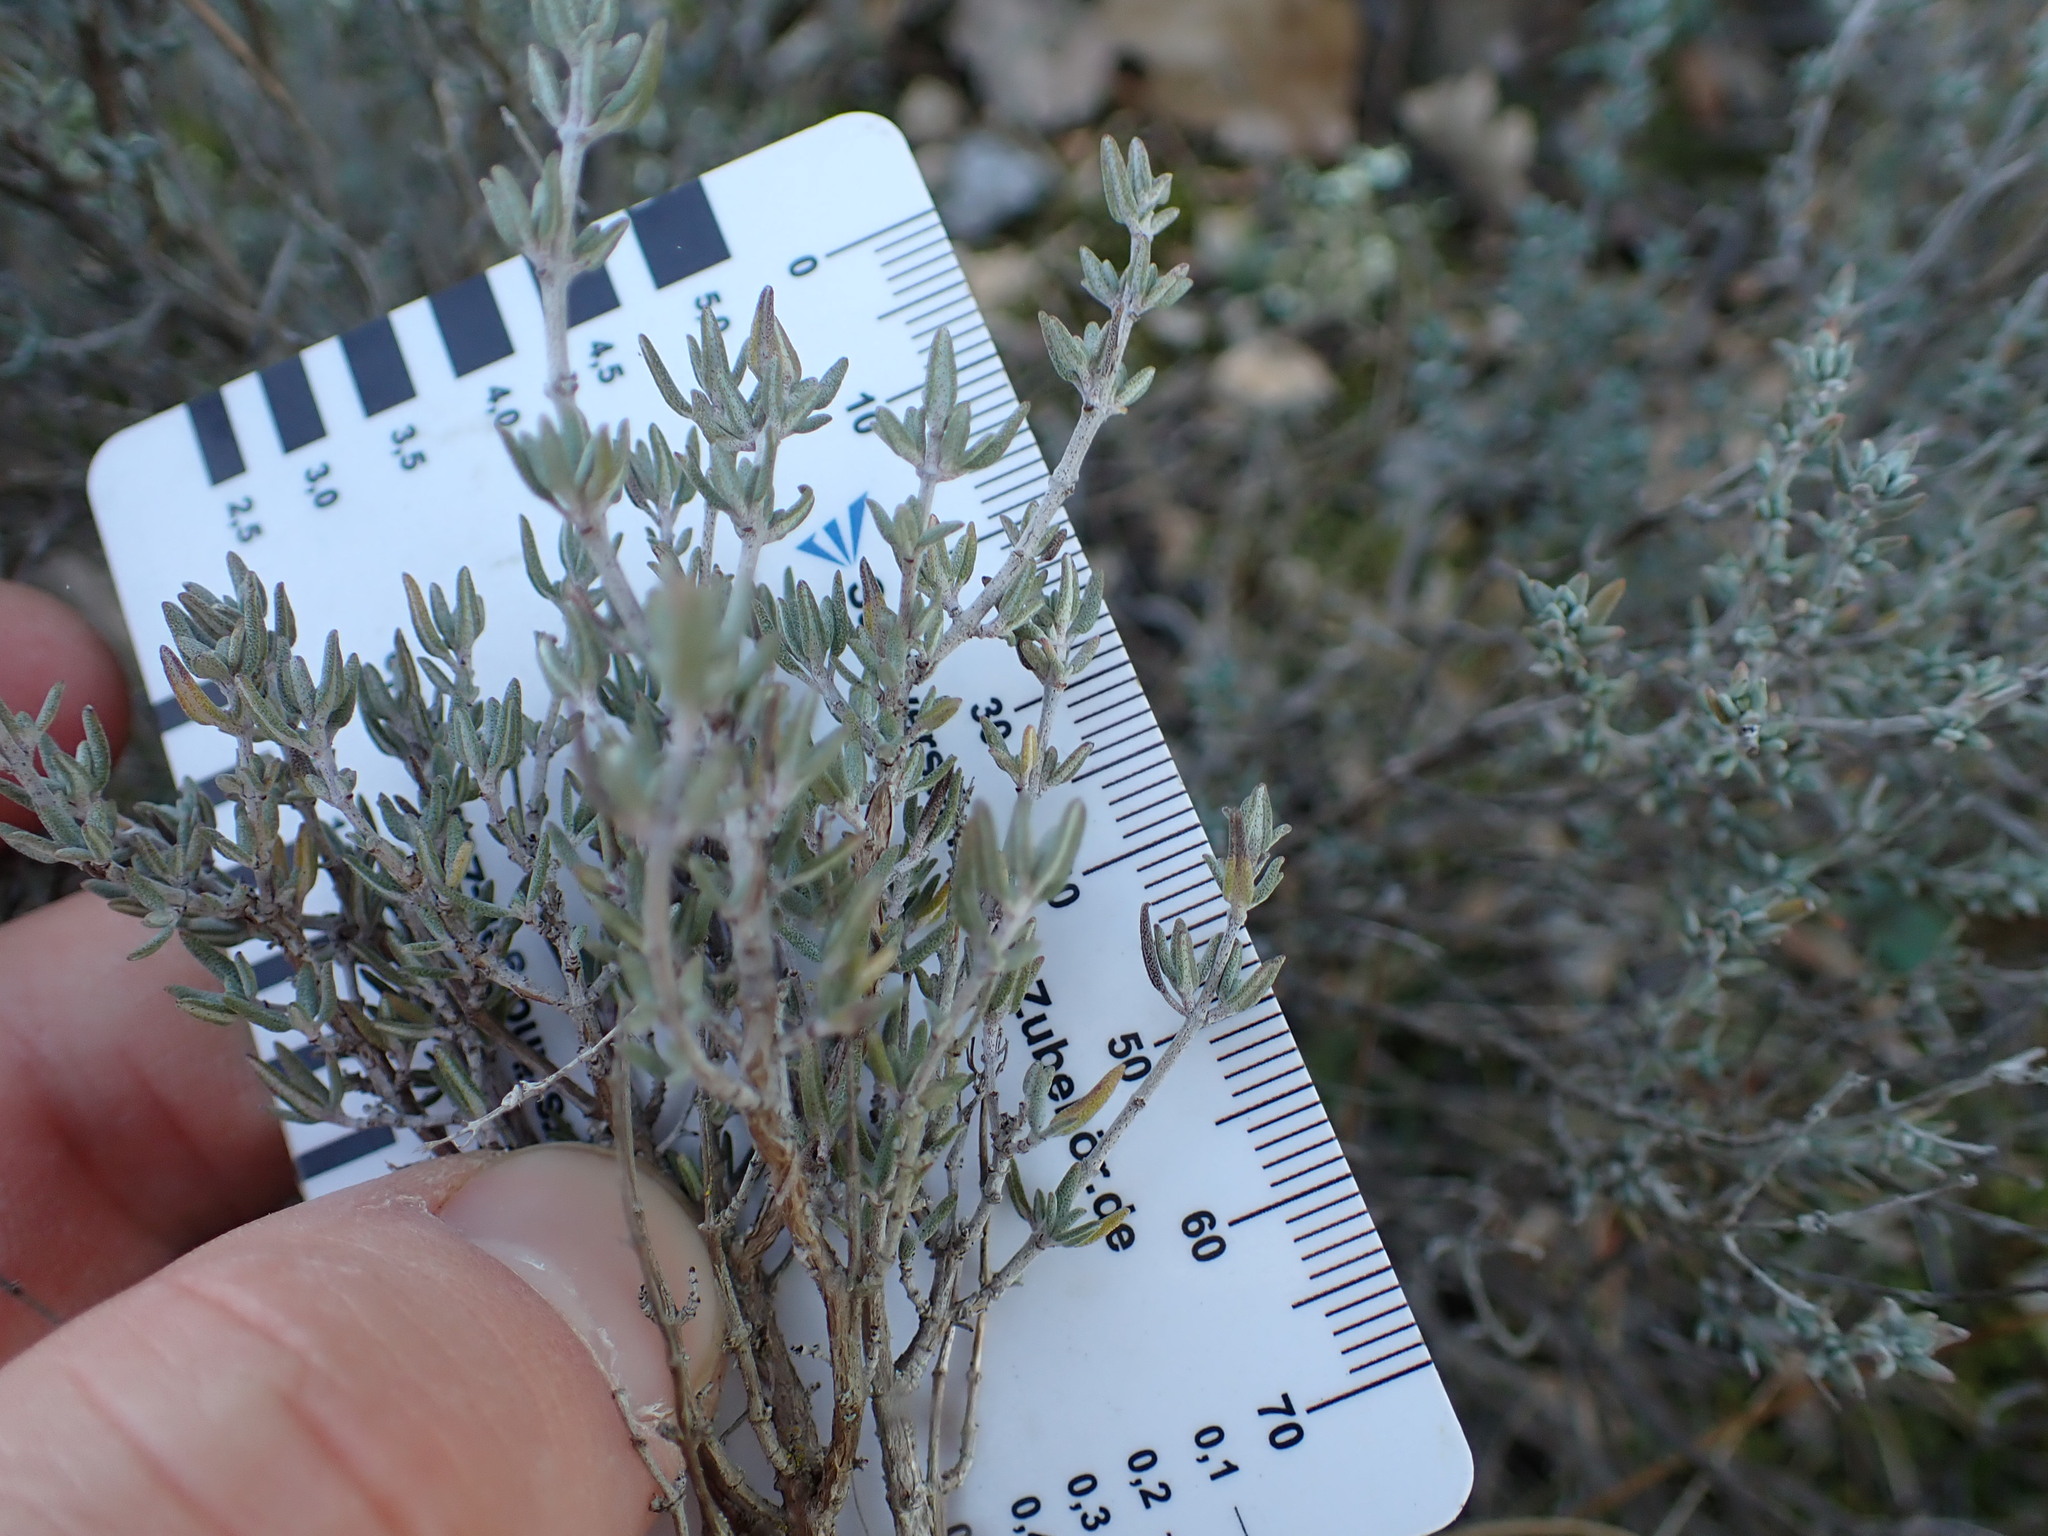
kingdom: Plantae
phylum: Tracheophyta
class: Magnoliopsida
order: Lamiales
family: Lamiaceae
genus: Thymus
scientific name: Thymus vulgaris
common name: Garden thyme
